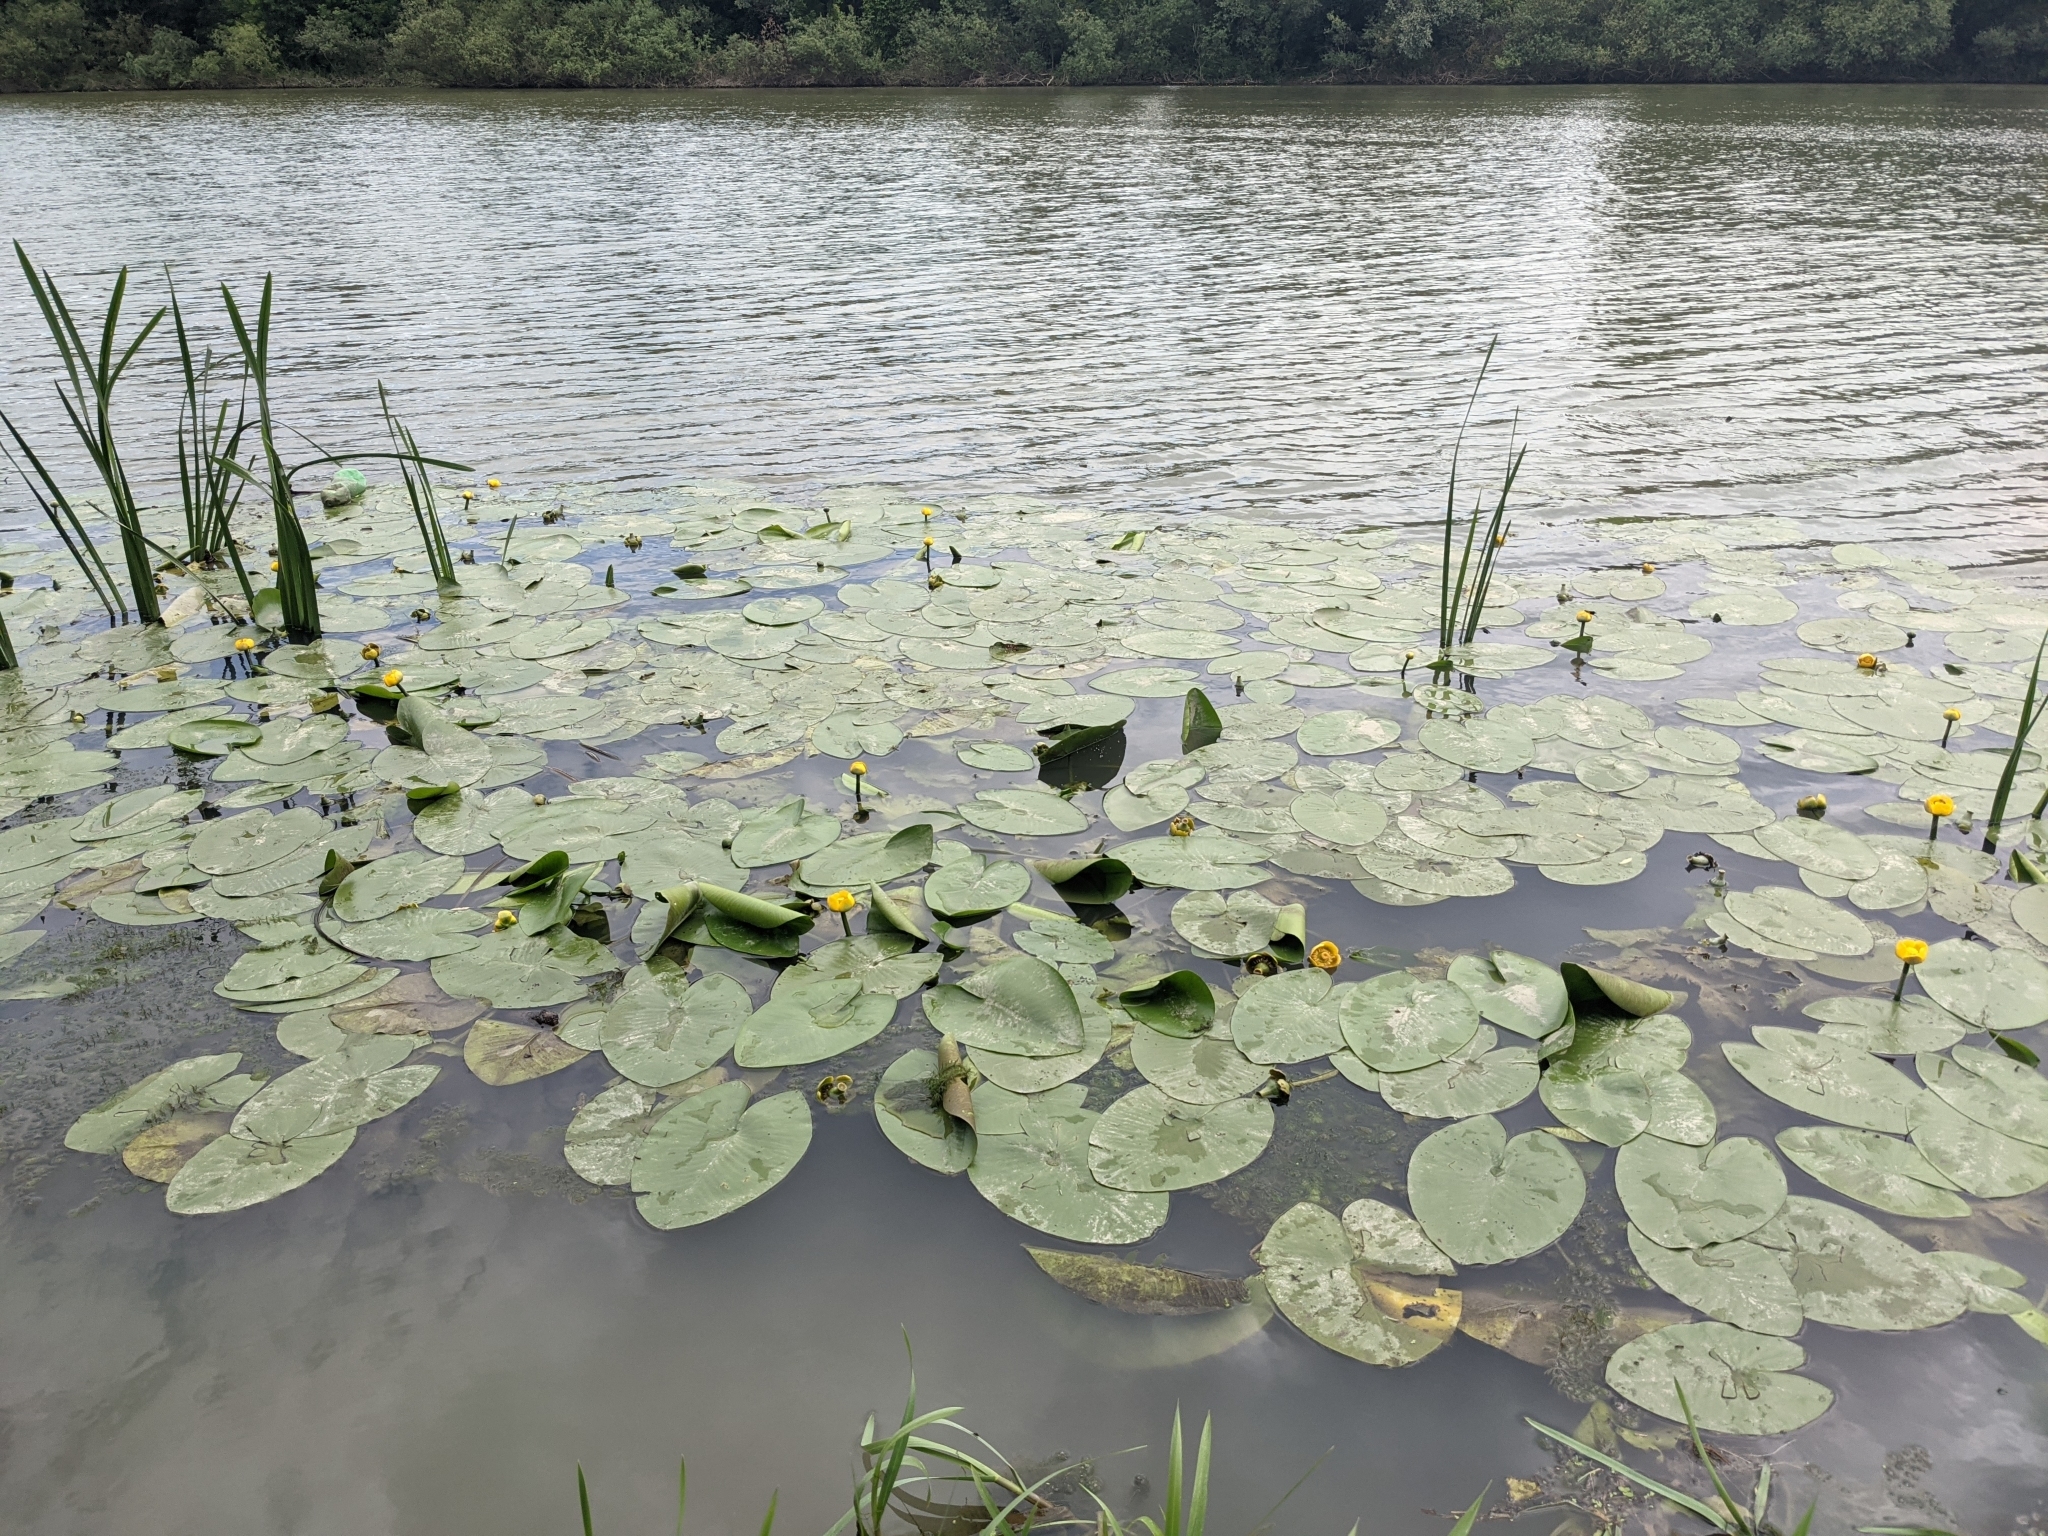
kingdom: Plantae
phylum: Tracheophyta
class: Magnoliopsida
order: Nymphaeales
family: Nymphaeaceae
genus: Nuphar
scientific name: Nuphar lutea
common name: Yellow water-lily
